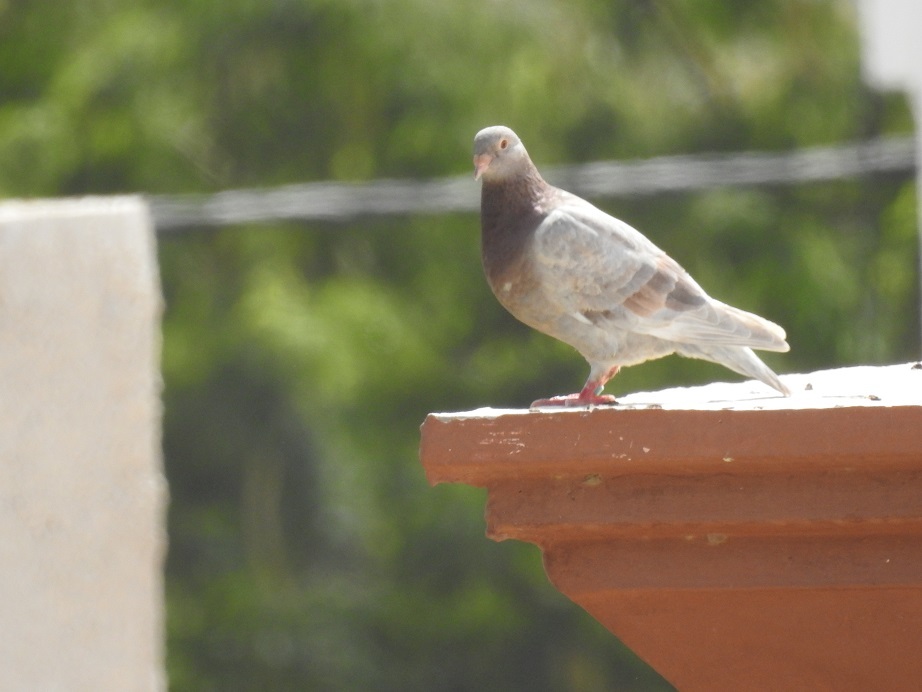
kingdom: Animalia
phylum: Chordata
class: Aves
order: Columbiformes
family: Columbidae
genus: Columba
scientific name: Columba livia
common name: Rock pigeon
